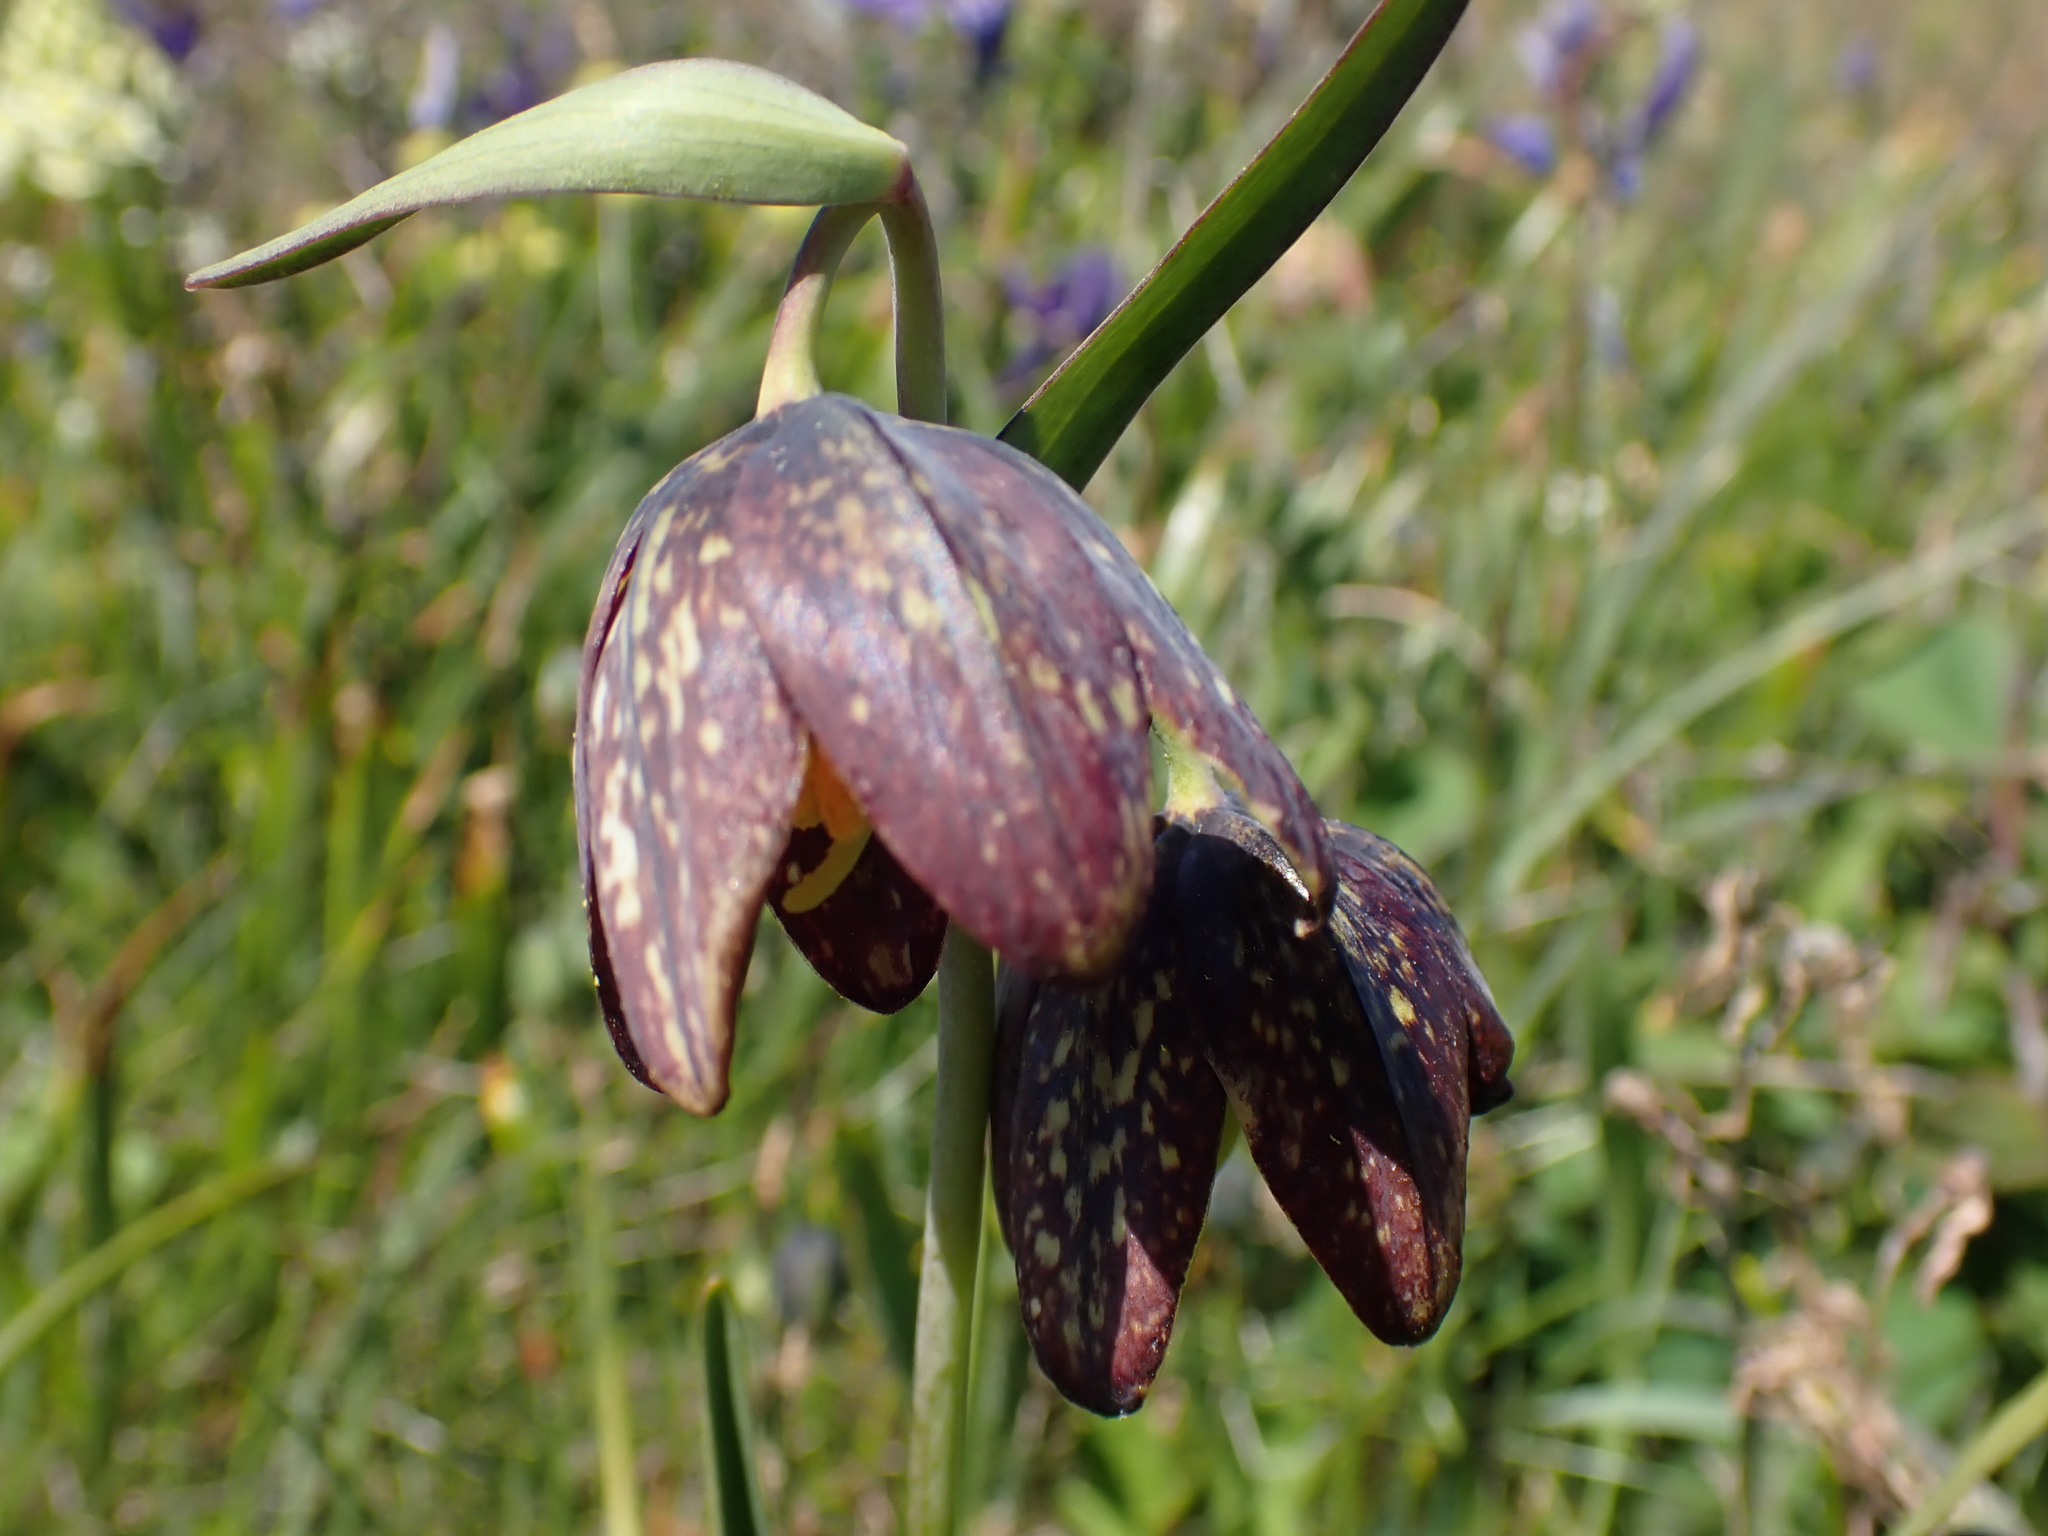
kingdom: Plantae
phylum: Tracheophyta
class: Liliopsida
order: Liliales
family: Liliaceae
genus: Fritillaria
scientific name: Fritillaria affinis
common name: Ojai fritillary
